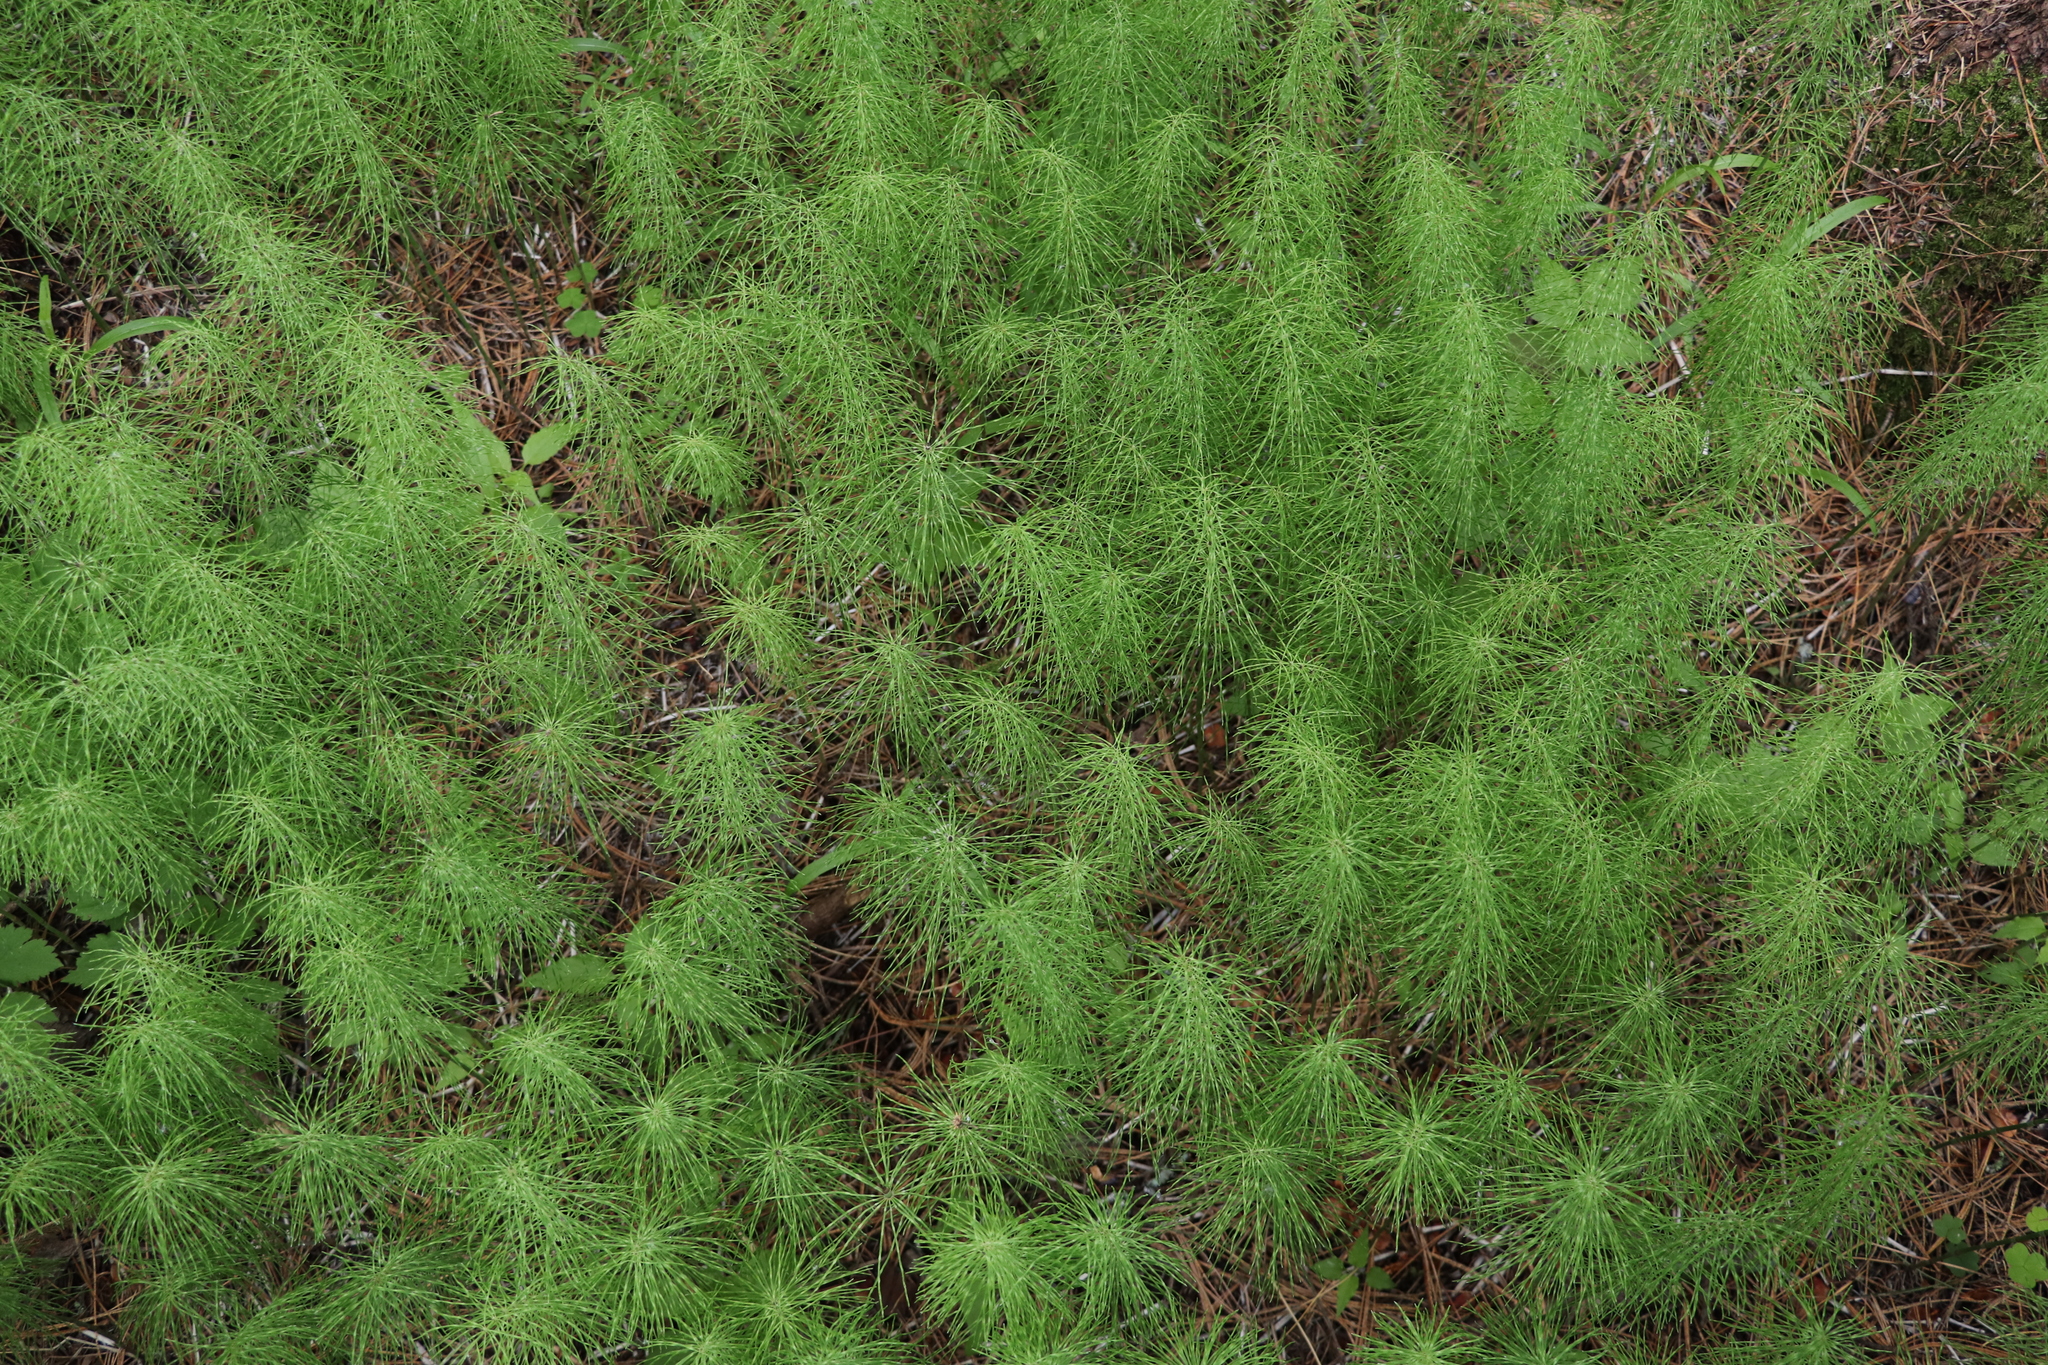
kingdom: Plantae
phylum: Tracheophyta
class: Polypodiopsida
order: Equisetales
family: Equisetaceae
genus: Equisetum
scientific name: Equisetum pratense
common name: Meadow horsetail
